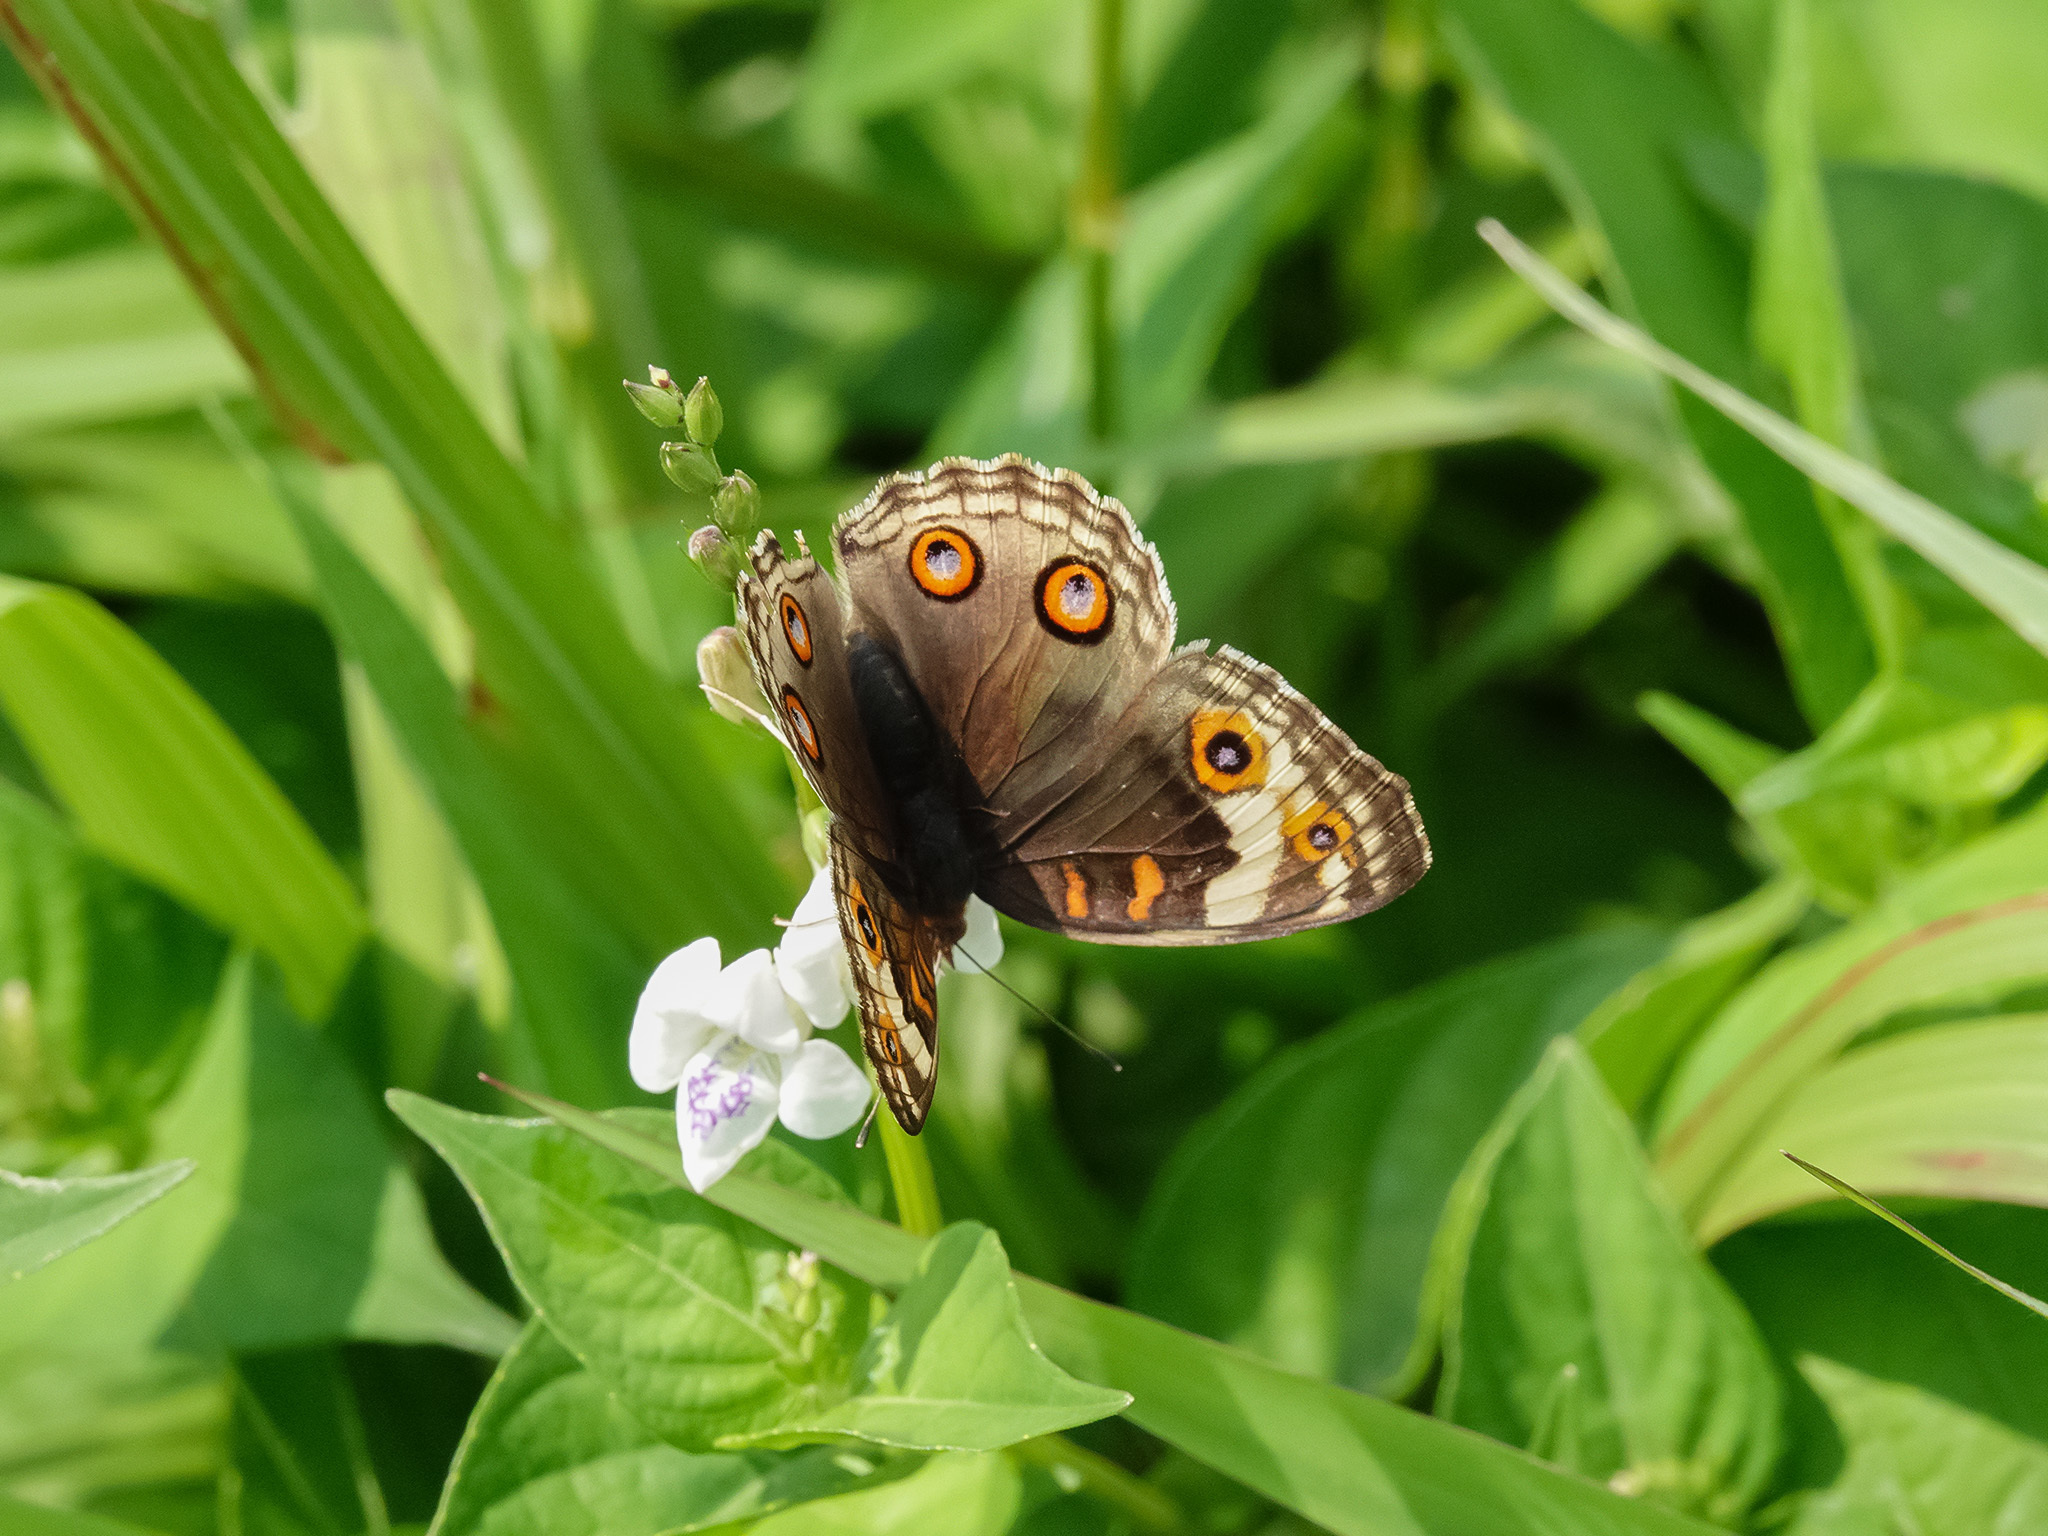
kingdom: Animalia
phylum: Arthropoda
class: Insecta
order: Lepidoptera
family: Nymphalidae
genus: Junonia
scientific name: Junonia orithya
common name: Blue pansy
